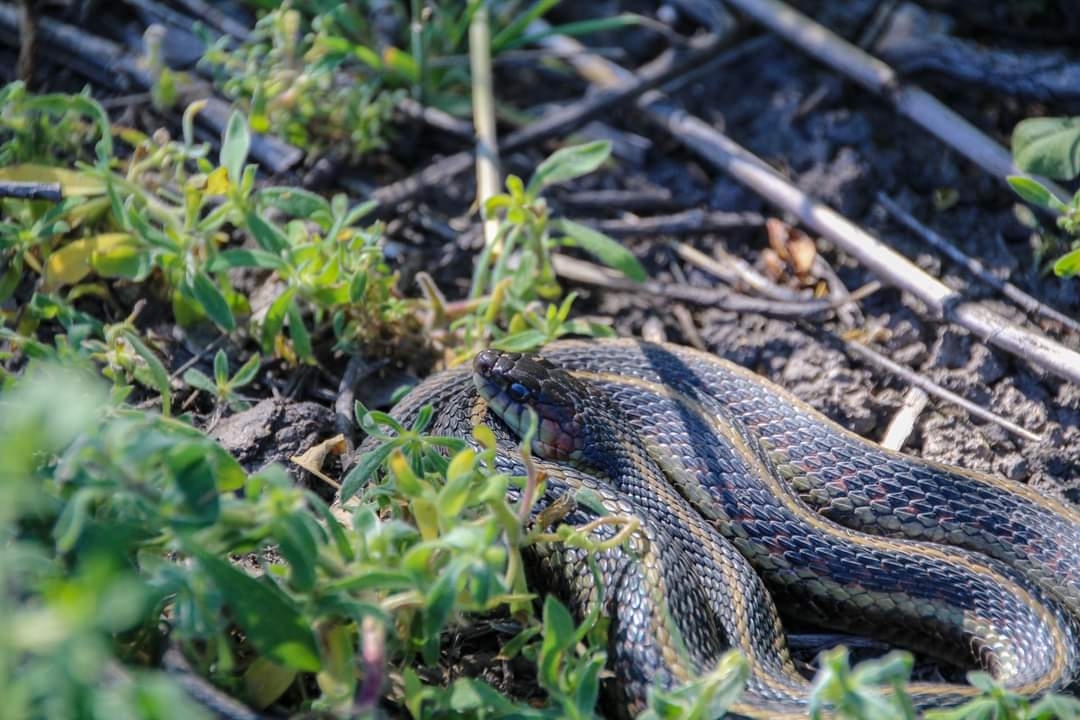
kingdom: Animalia
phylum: Chordata
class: Squamata
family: Colubridae
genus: Thamnophis
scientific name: Thamnophis sirtalis
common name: Common garter snake
